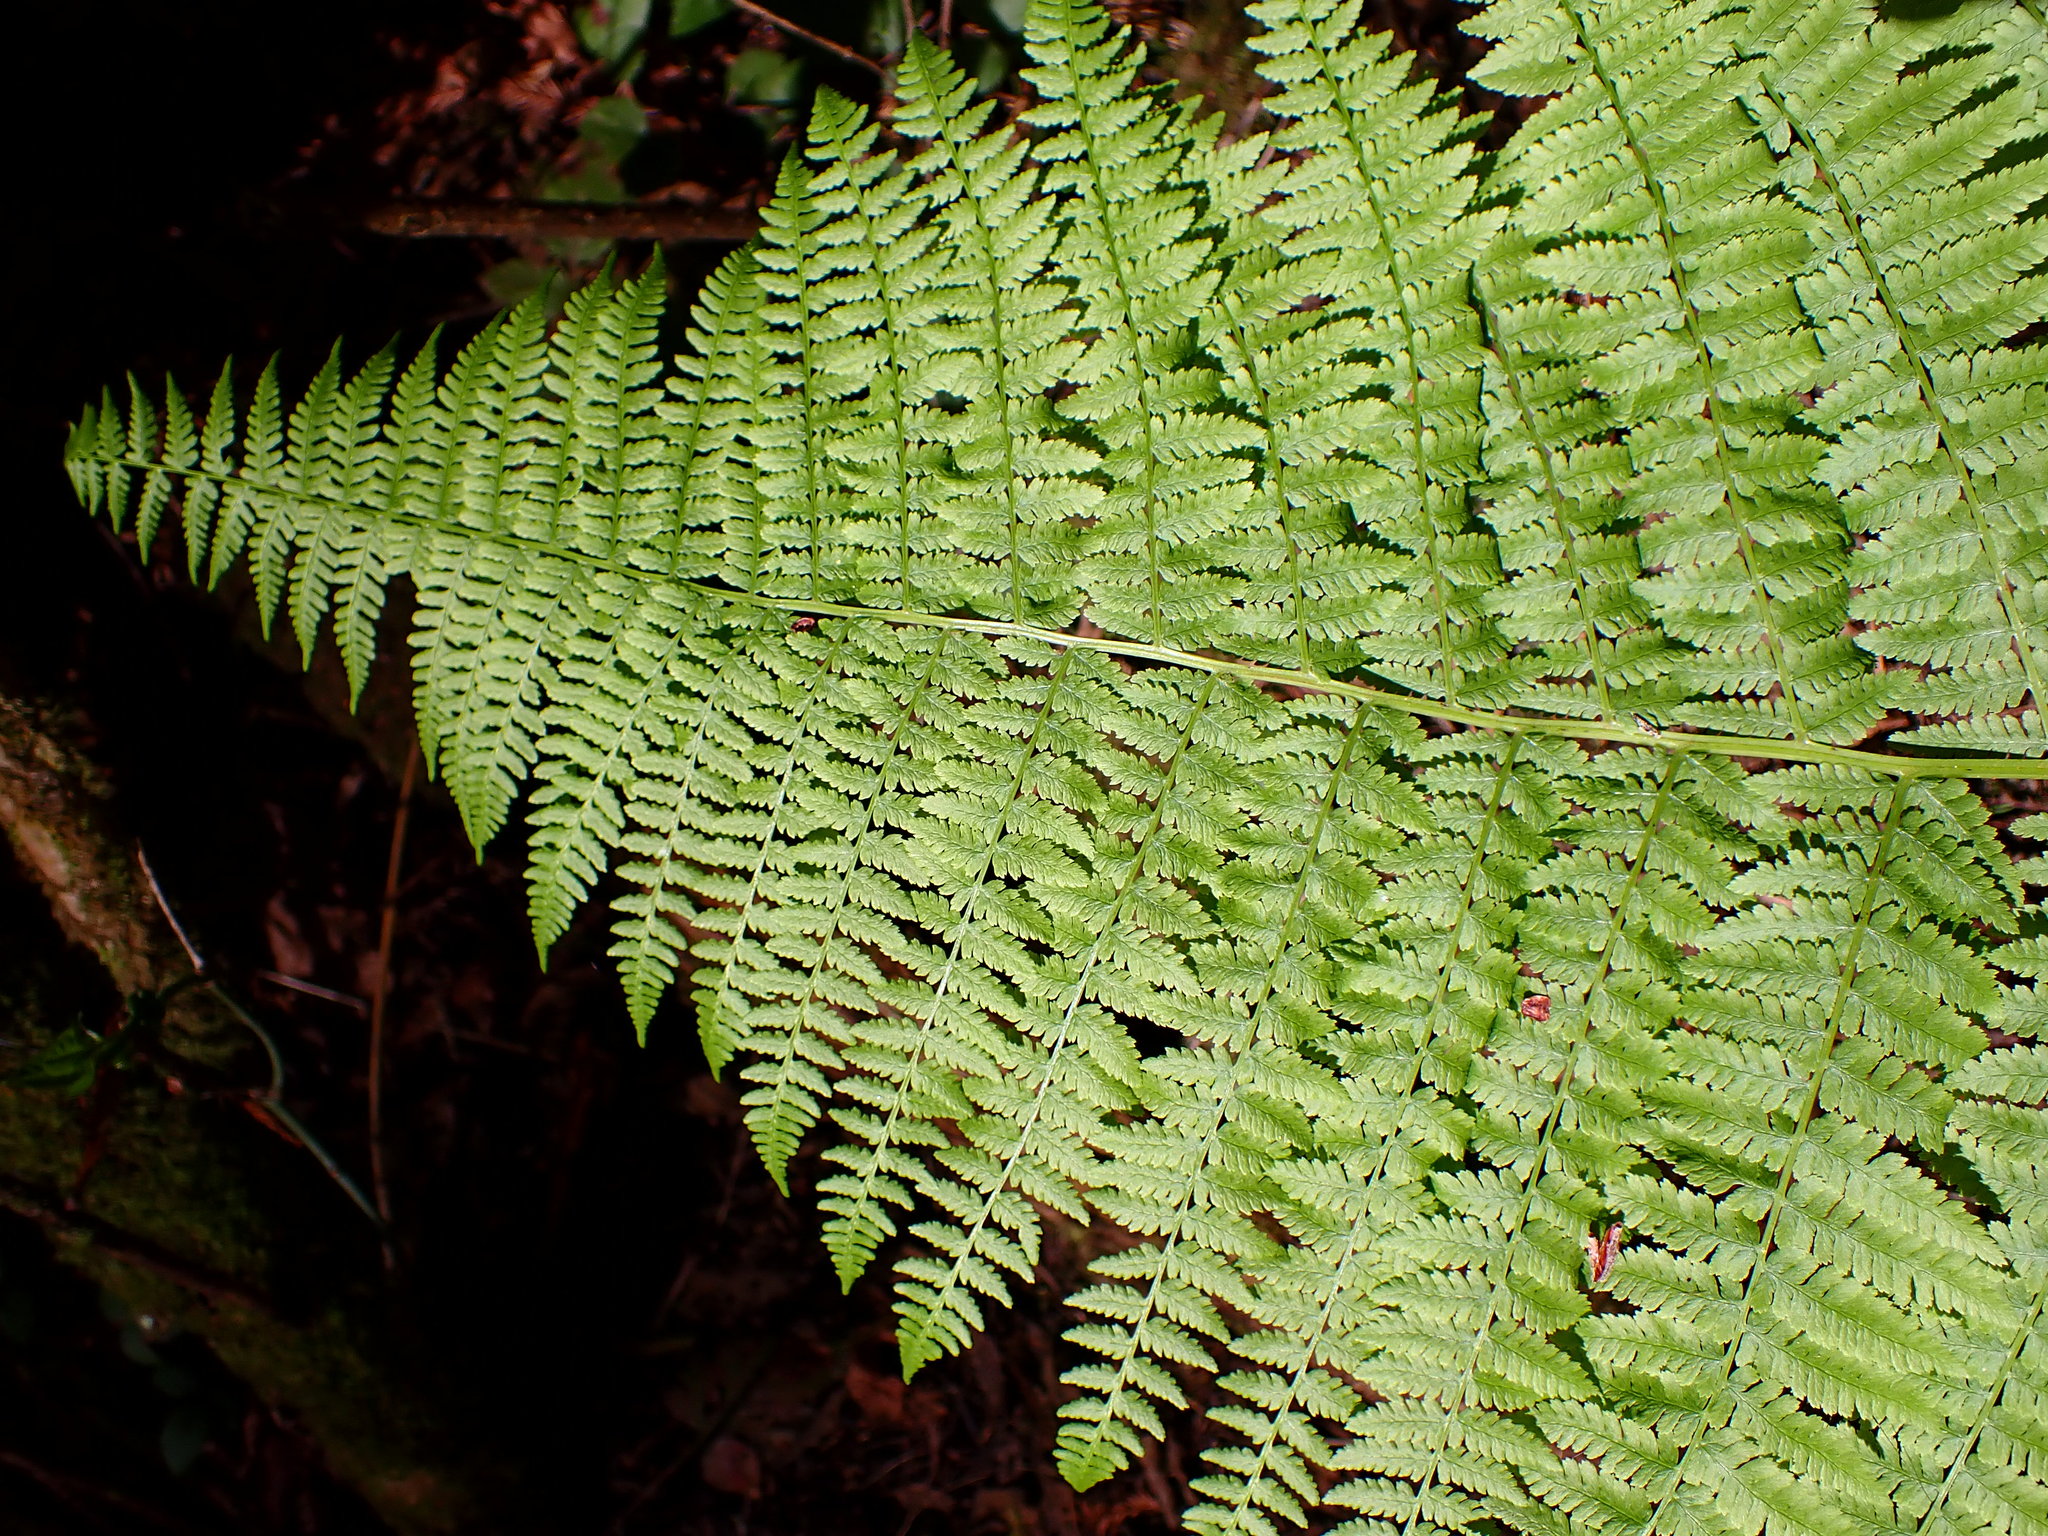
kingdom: Plantae
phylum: Tracheophyta
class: Polypodiopsida
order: Polypodiales
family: Athyriaceae
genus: Athyrium
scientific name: Athyrium filix-femina
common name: Lady fern
